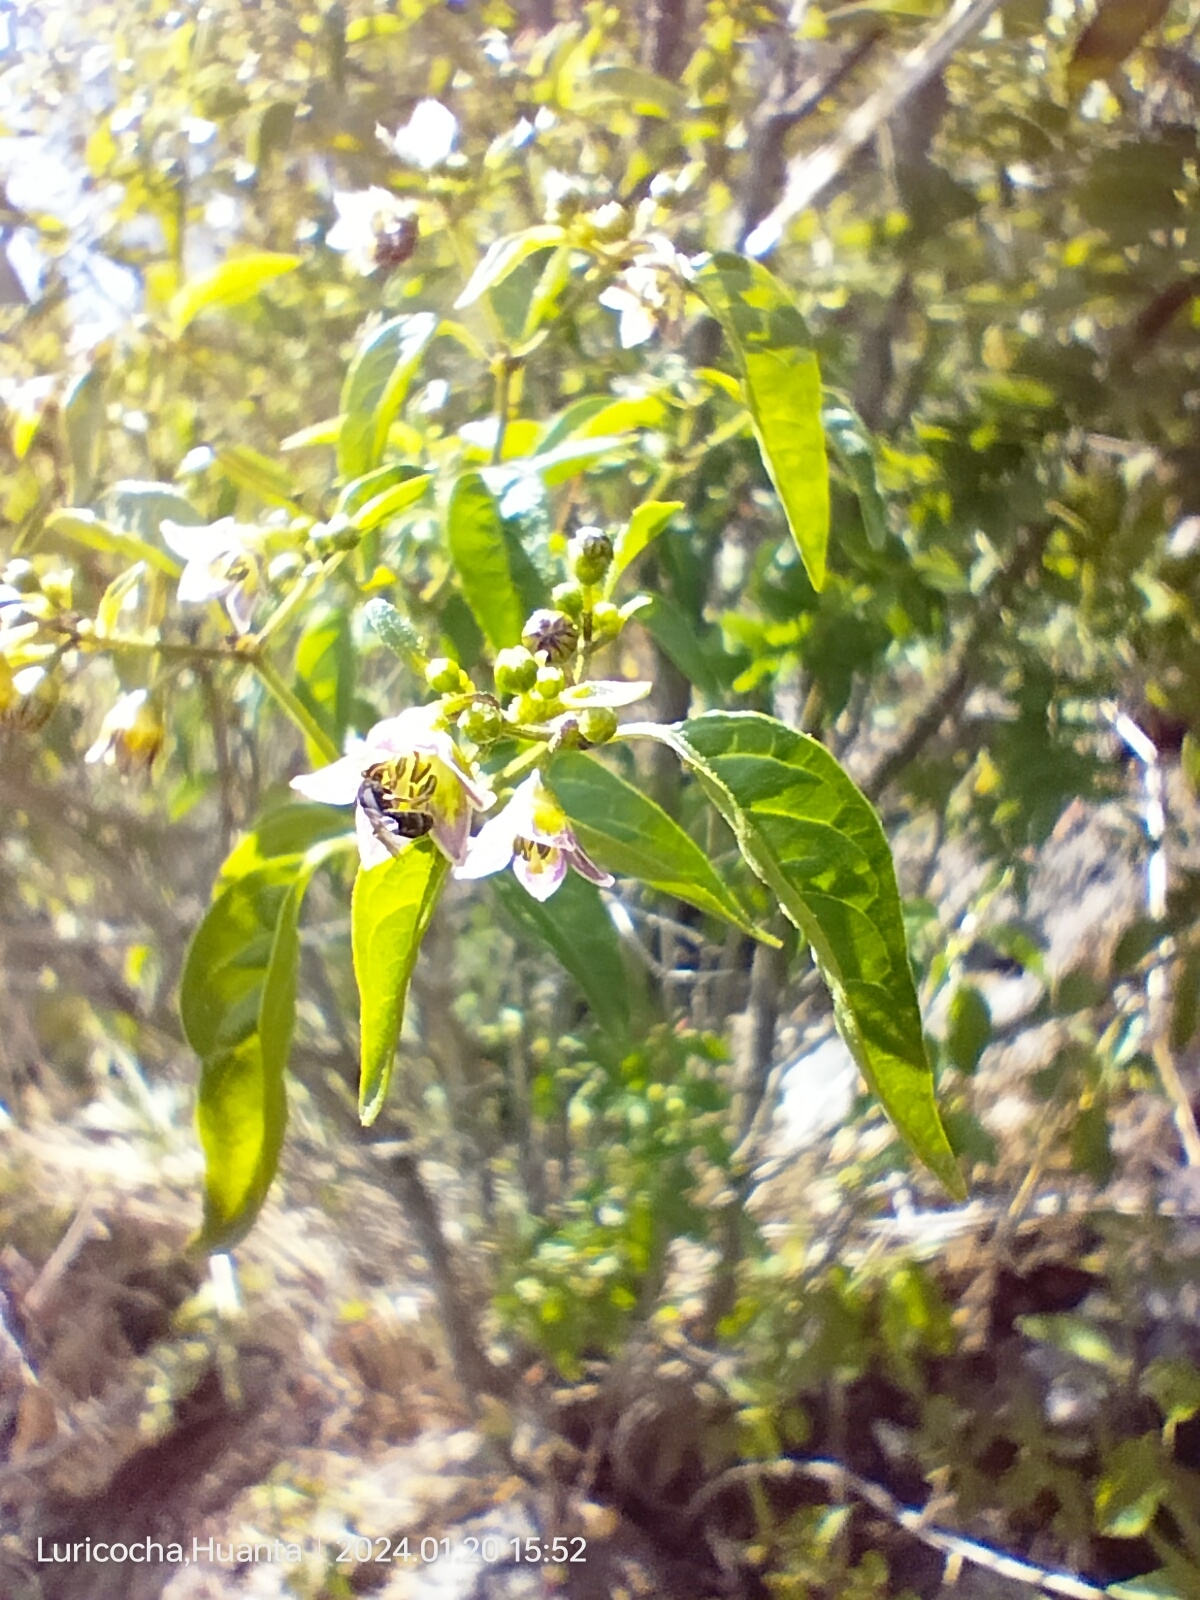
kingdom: Plantae
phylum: Tracheophyta
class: Magnoliopsida
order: Solanales
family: Solanaceae
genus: Capsicum
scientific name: Capsicum tovarii
